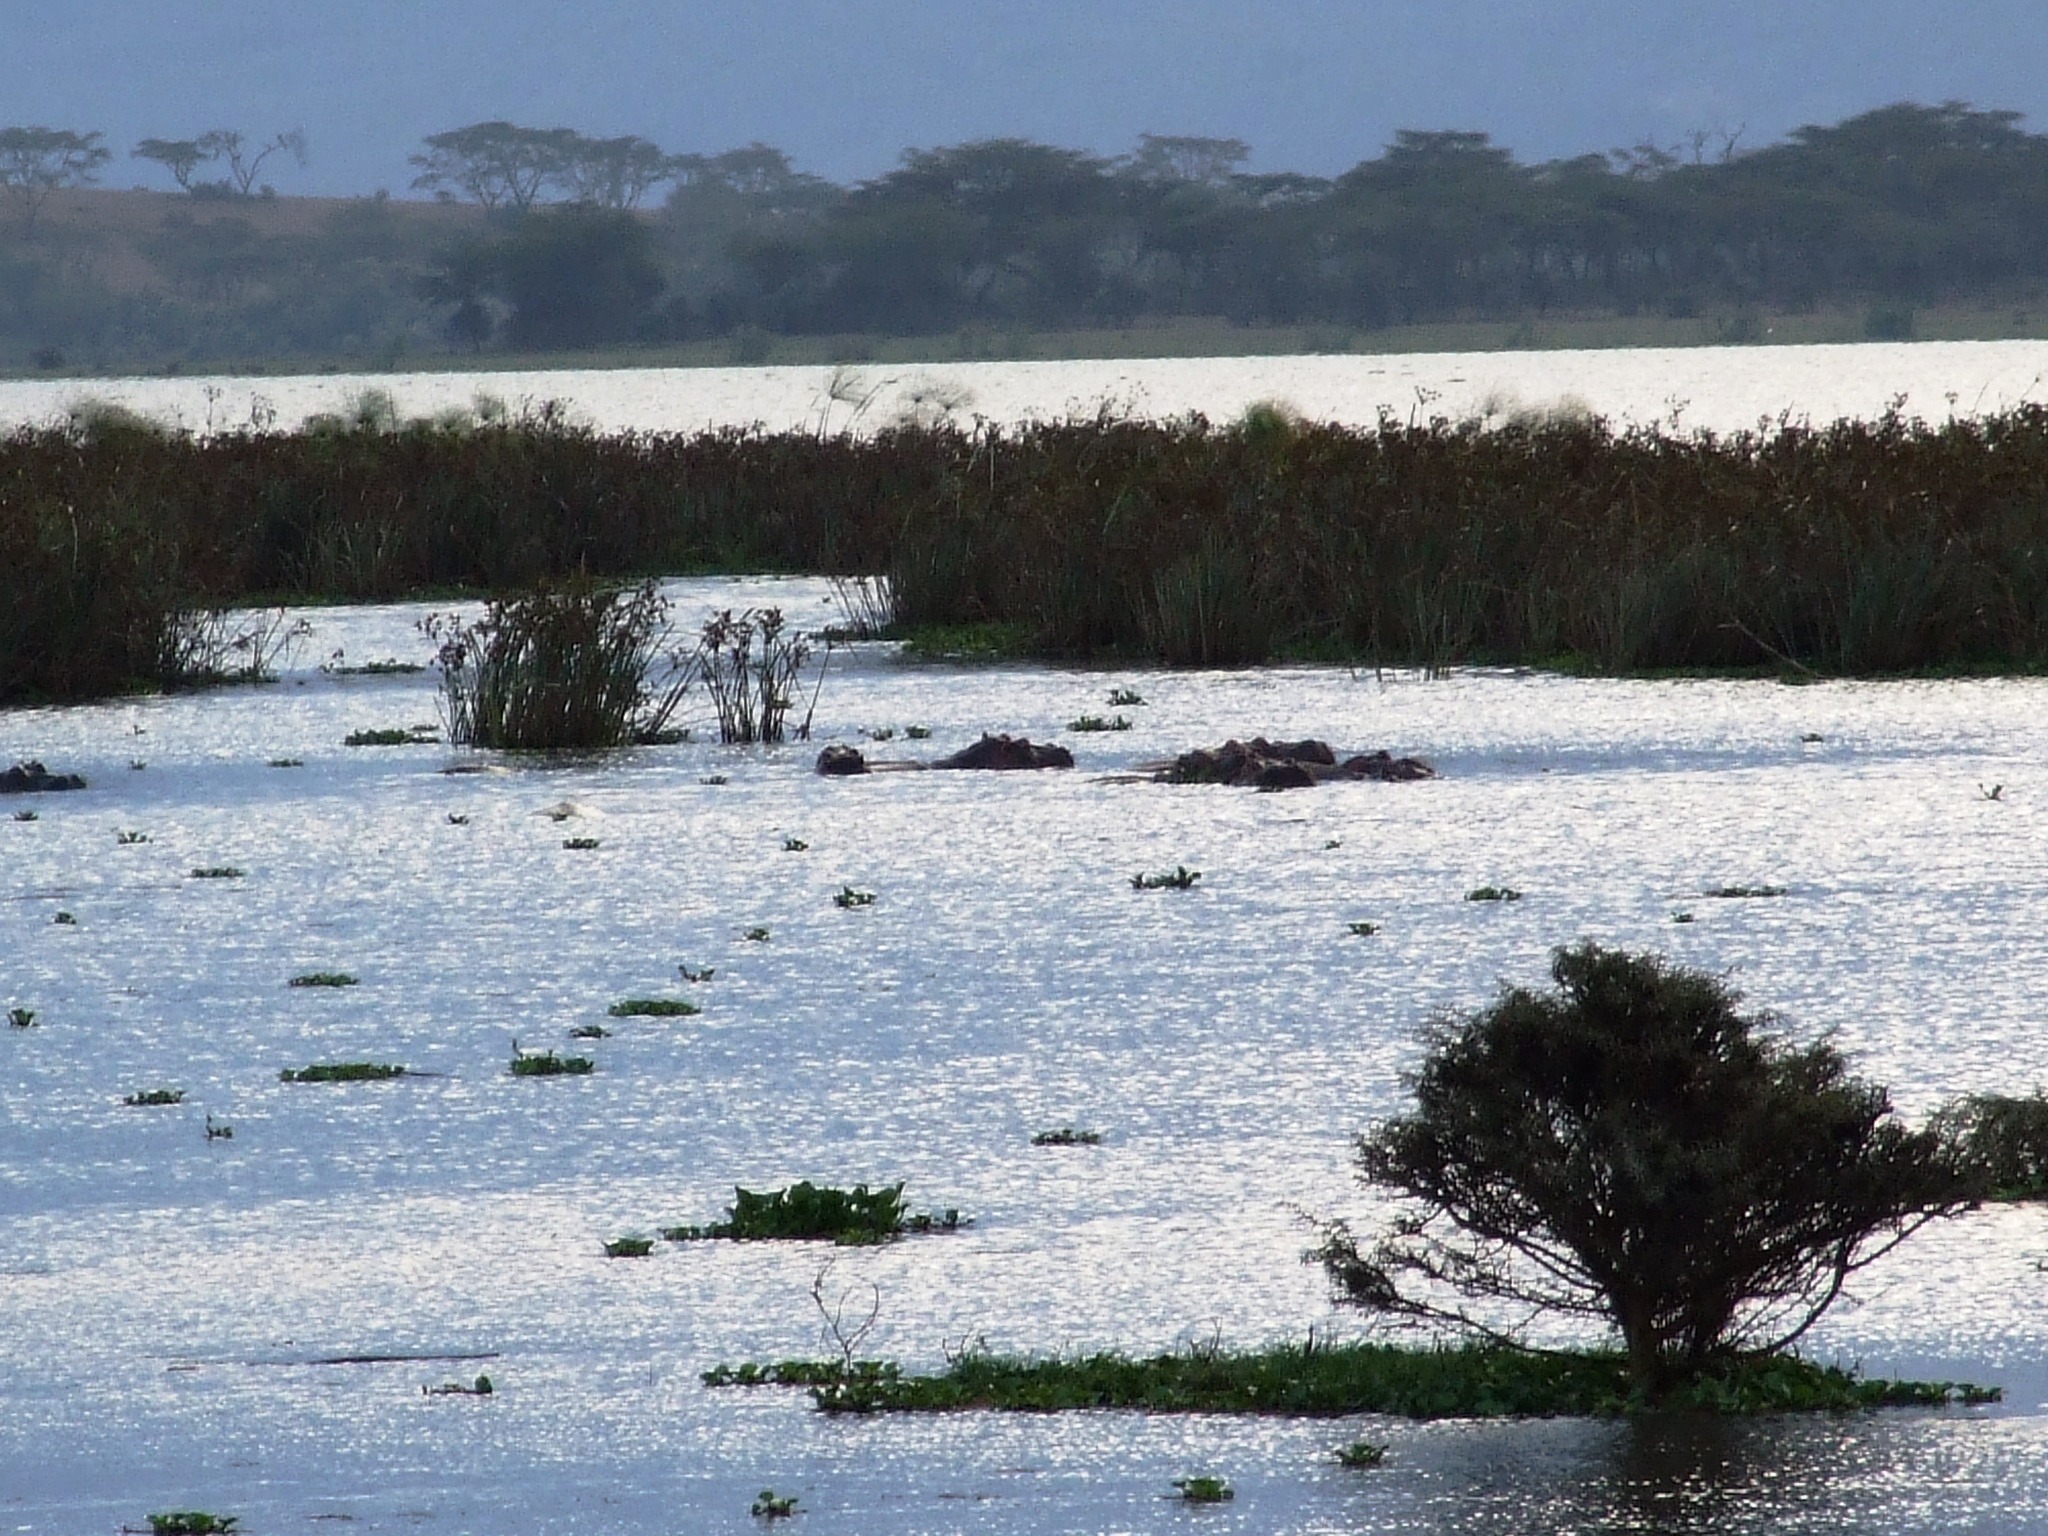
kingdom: Animalia
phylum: Chordata
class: Mammalia
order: Artiodactyla
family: Hippopotamidae
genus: Hippopotamus
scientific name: Hippopotamus amphibius
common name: Common hippopotamus
